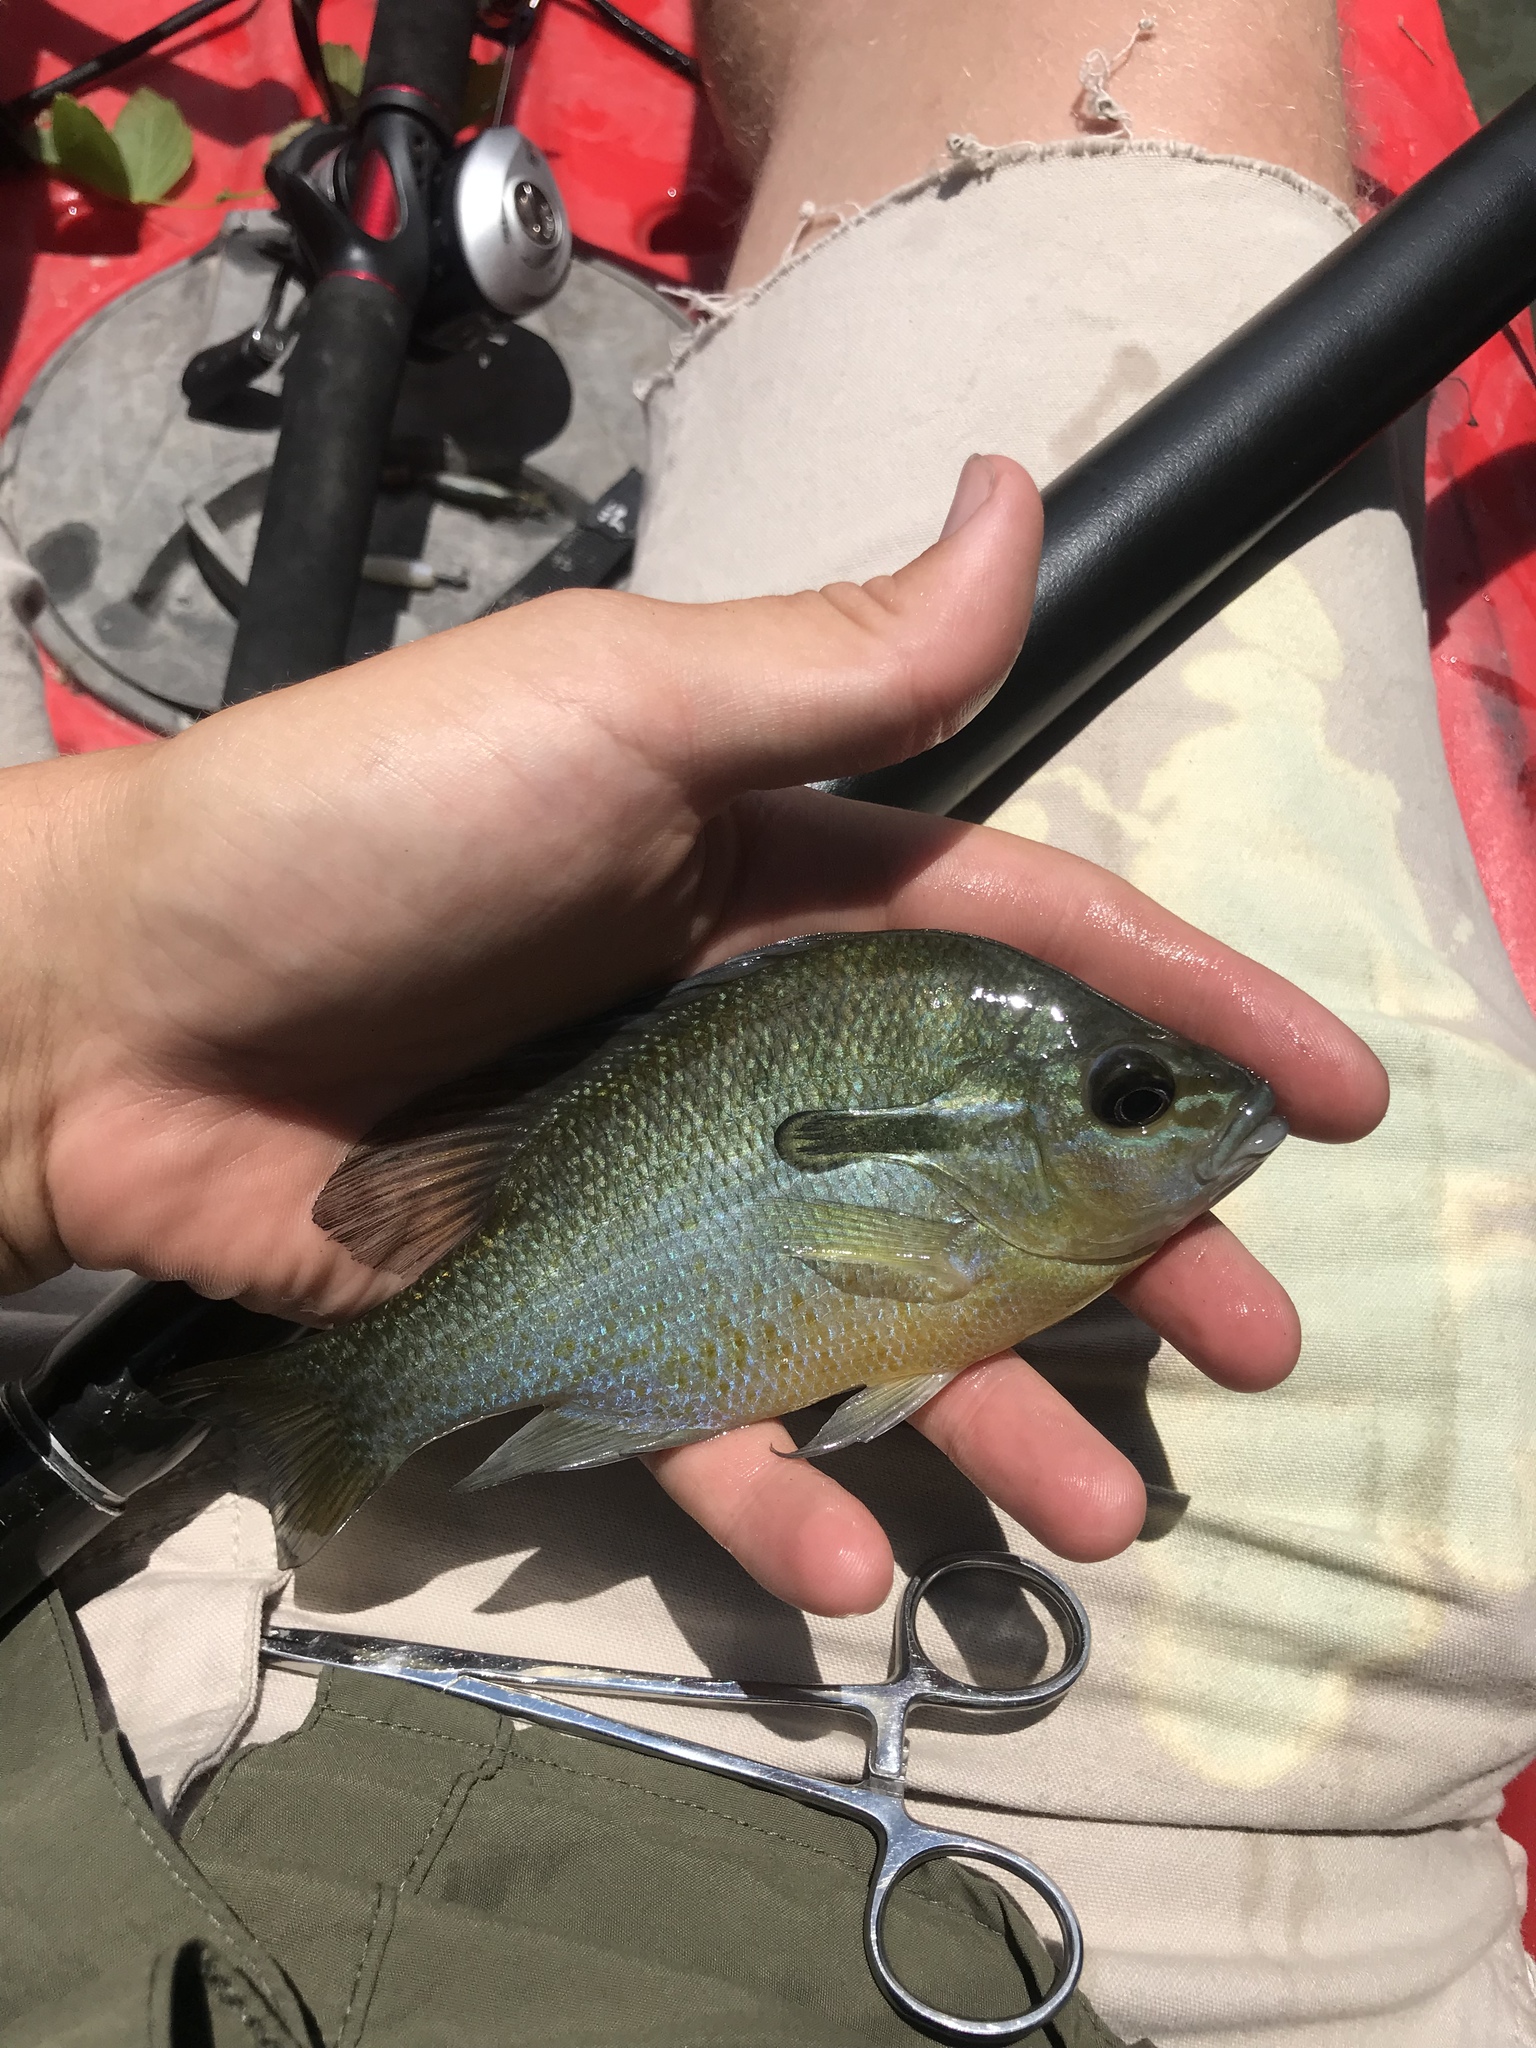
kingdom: Animalia
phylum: Chordata
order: Perciformes
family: Centrarchidae
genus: Lepomis
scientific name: Lepomis auritus
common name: Redbreast sunfish
